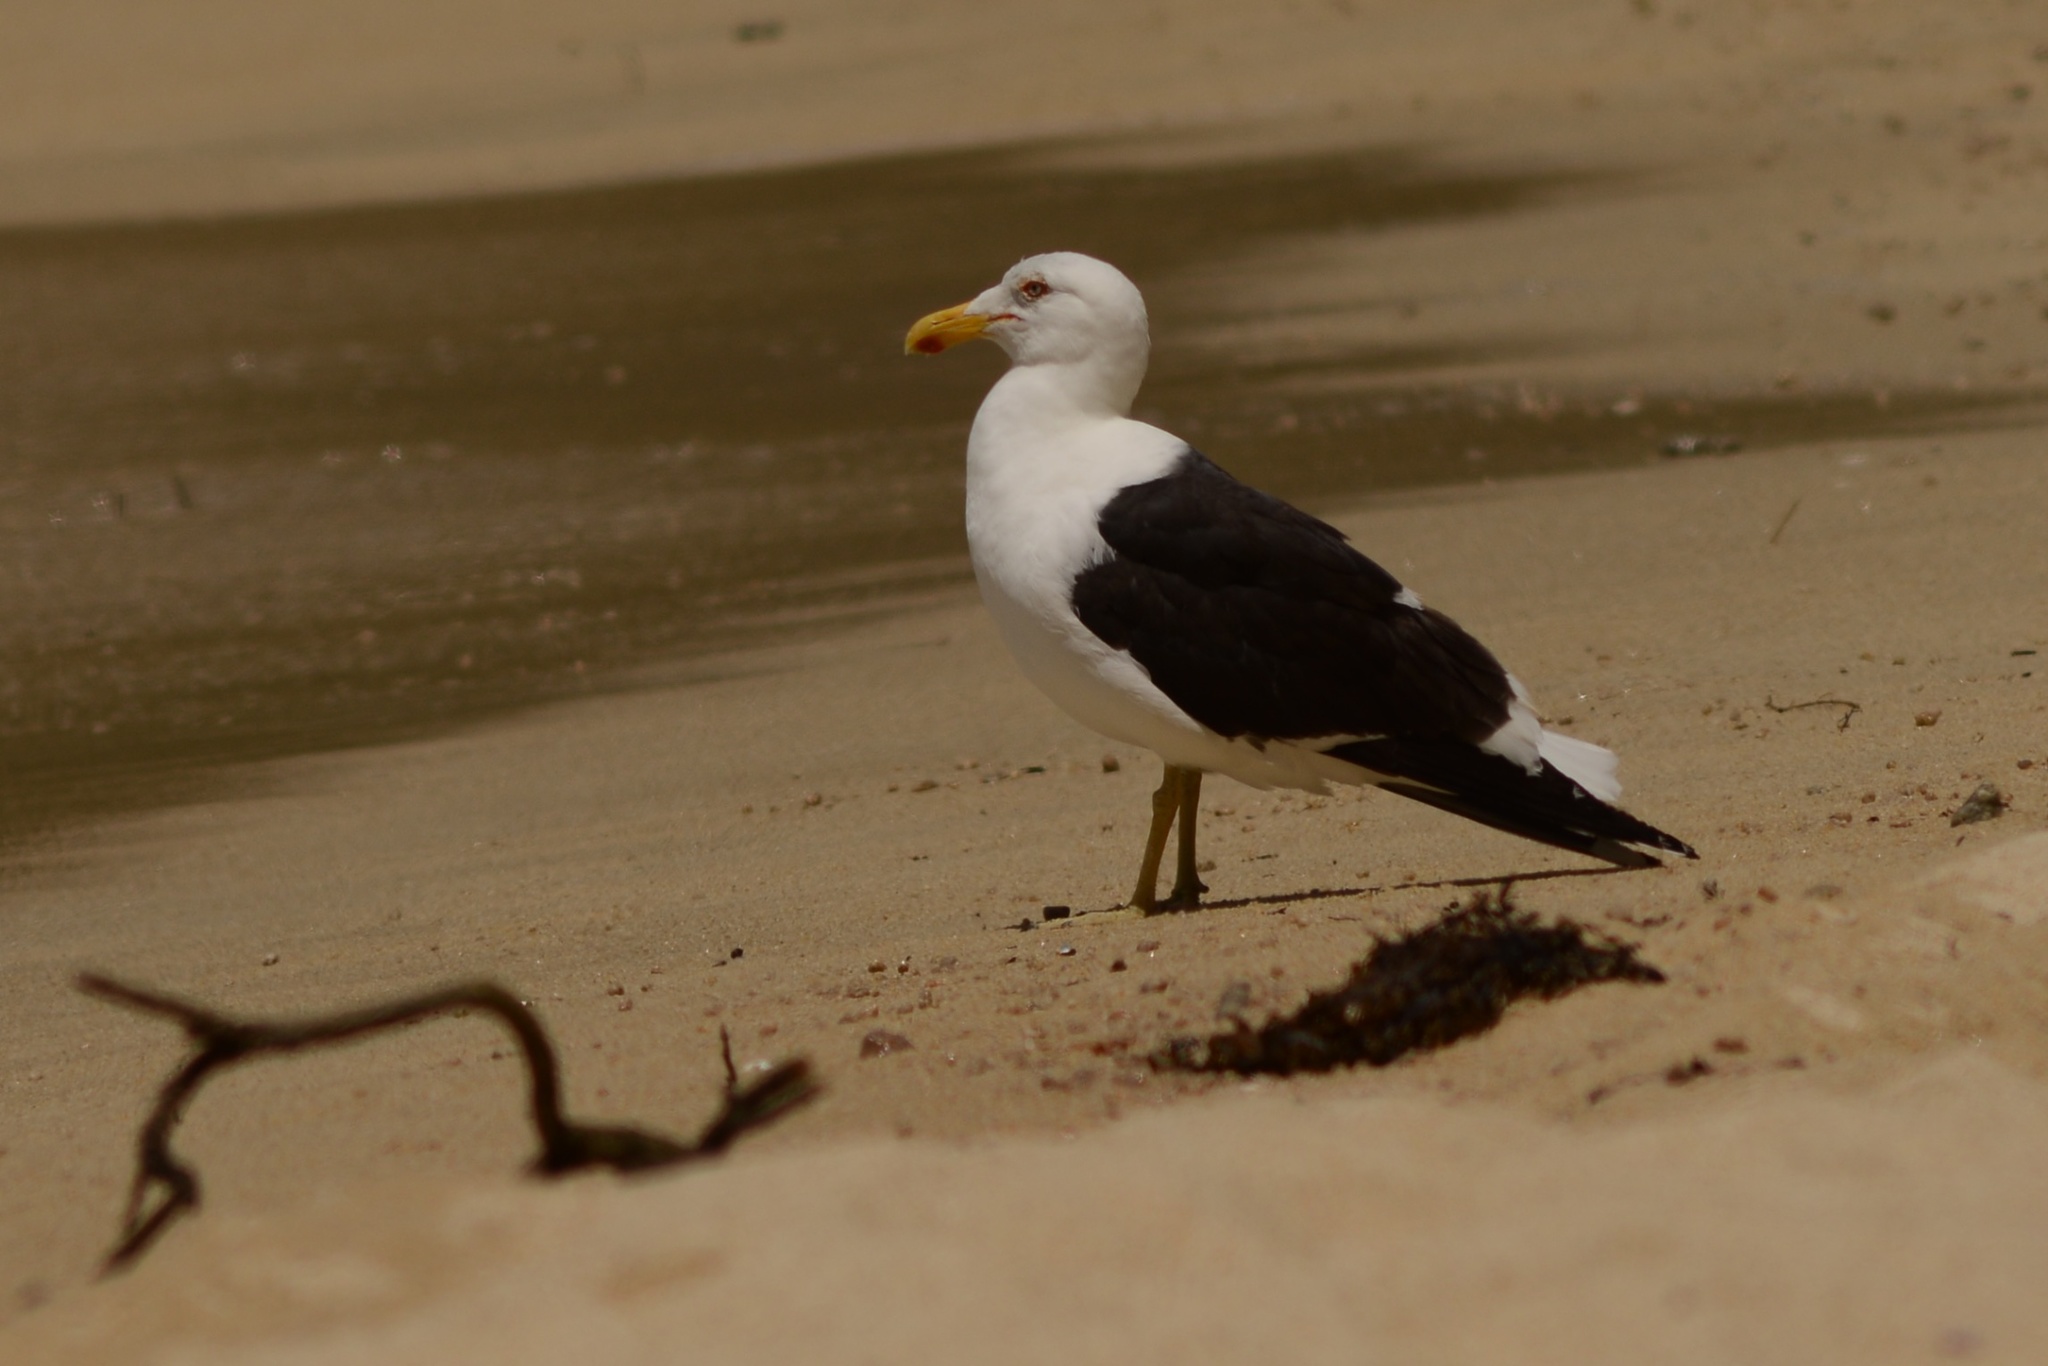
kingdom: Animalia
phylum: Chordata
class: Aves
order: Charadriiformes
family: Laridae
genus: Larus
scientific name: Larus dominicanus
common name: Kelp gull
